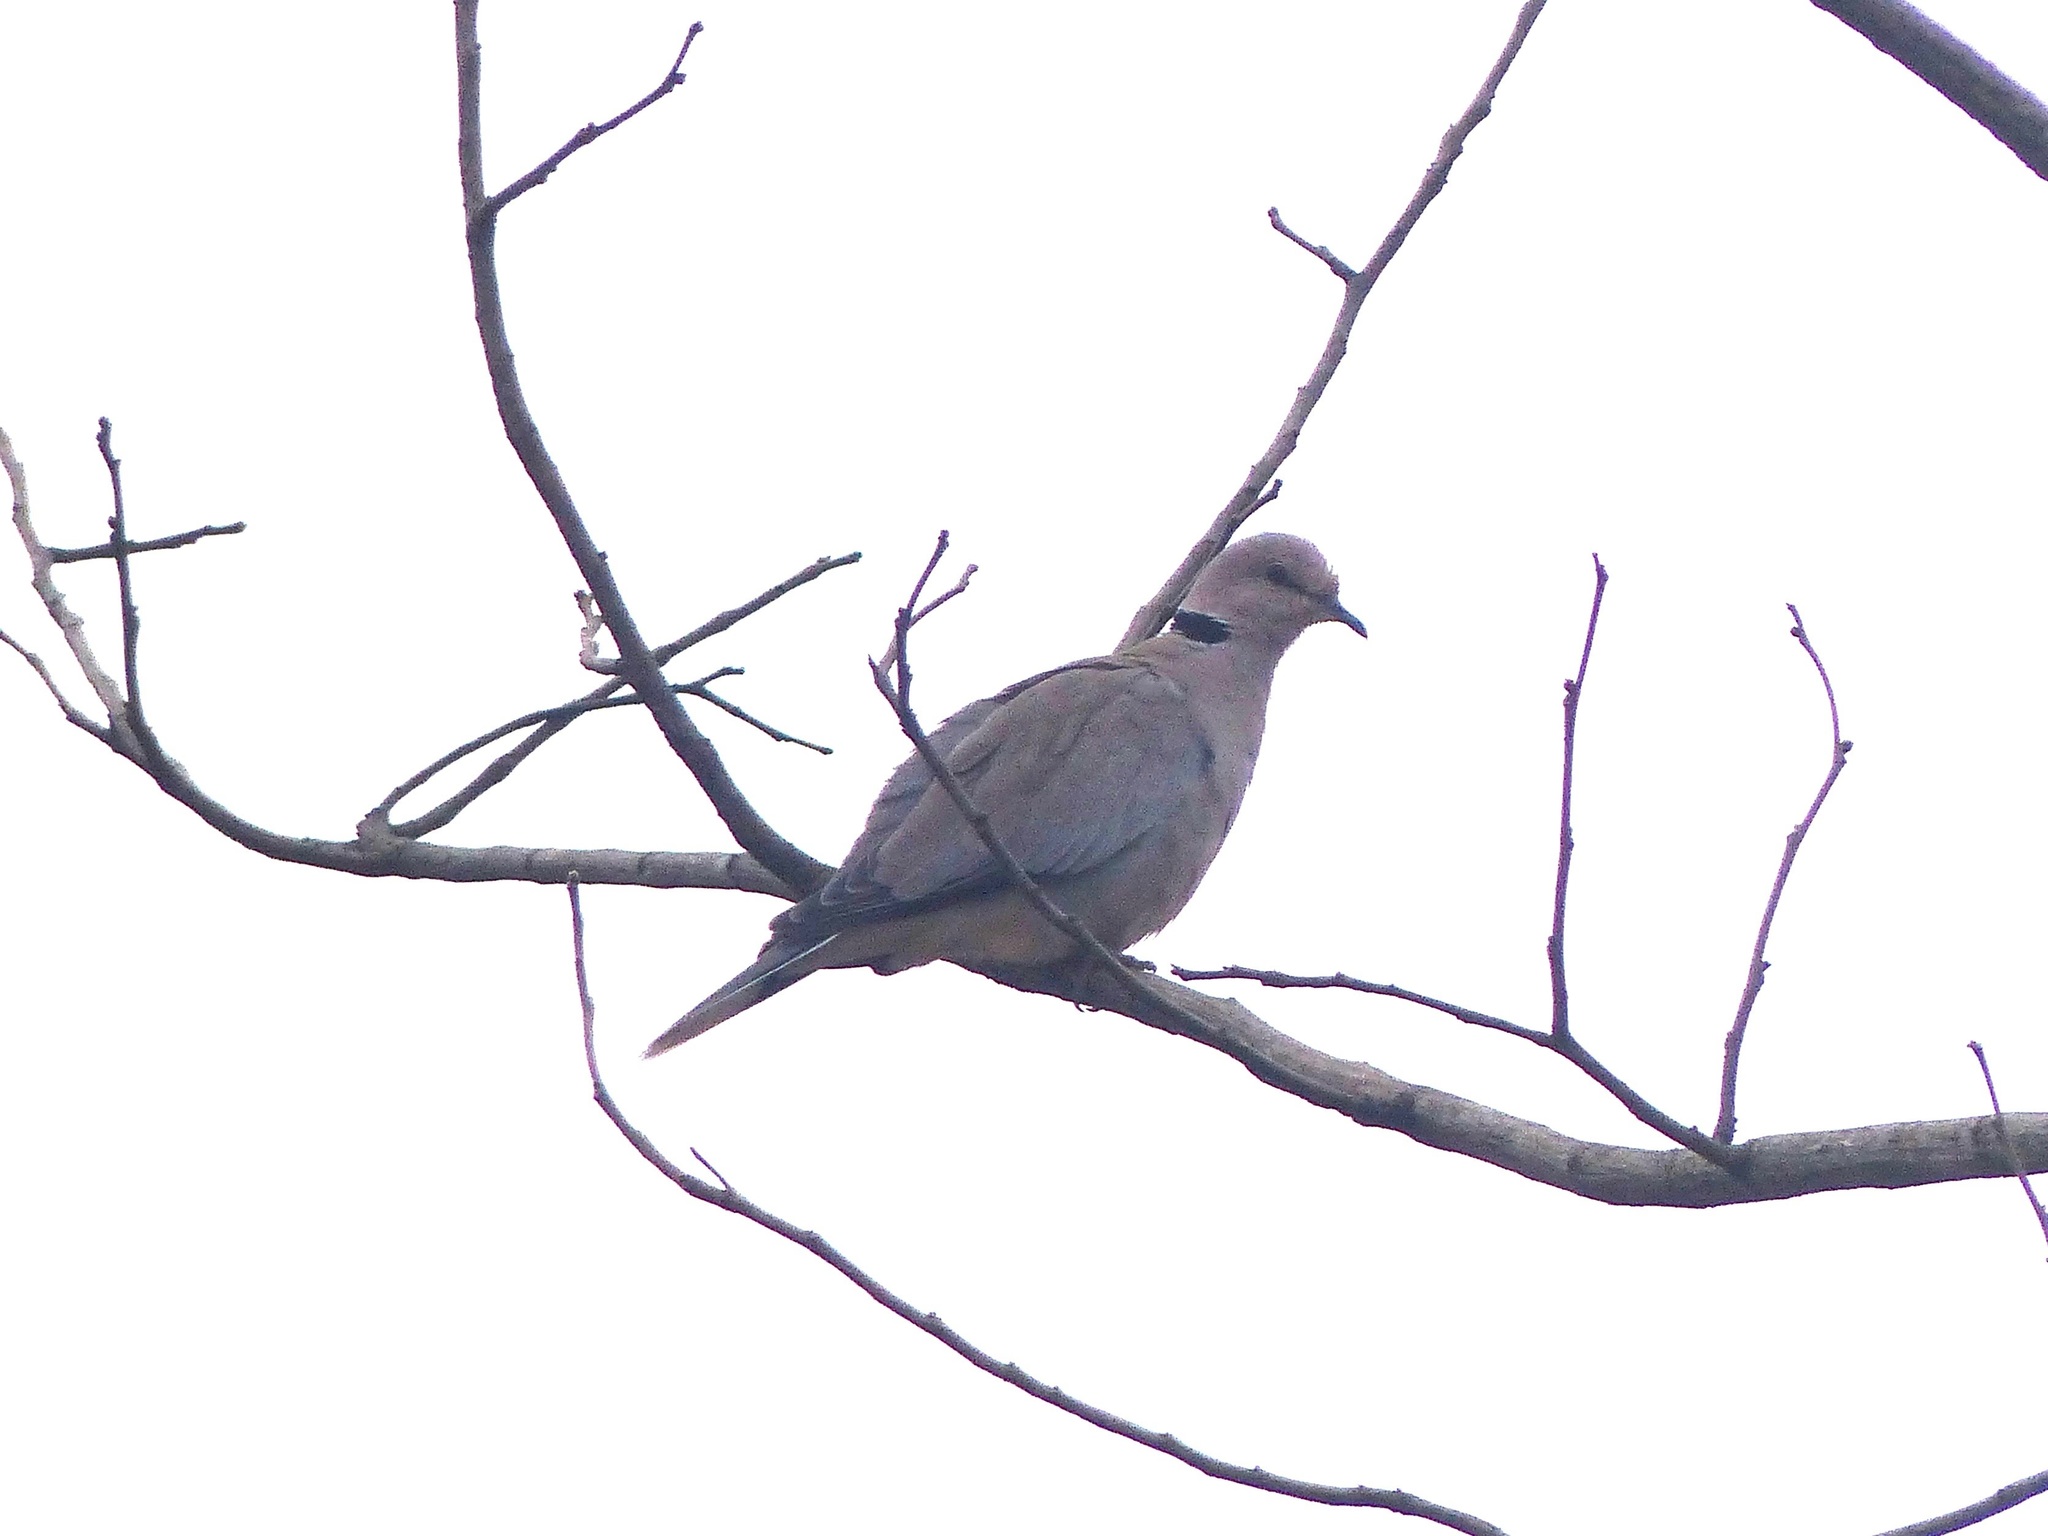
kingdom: Animalia
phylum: Chordata
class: Aves
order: Columbiformes
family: Columbidae
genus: Streptopelia
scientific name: Streptopelia vinacea
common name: Vinaceous dove
